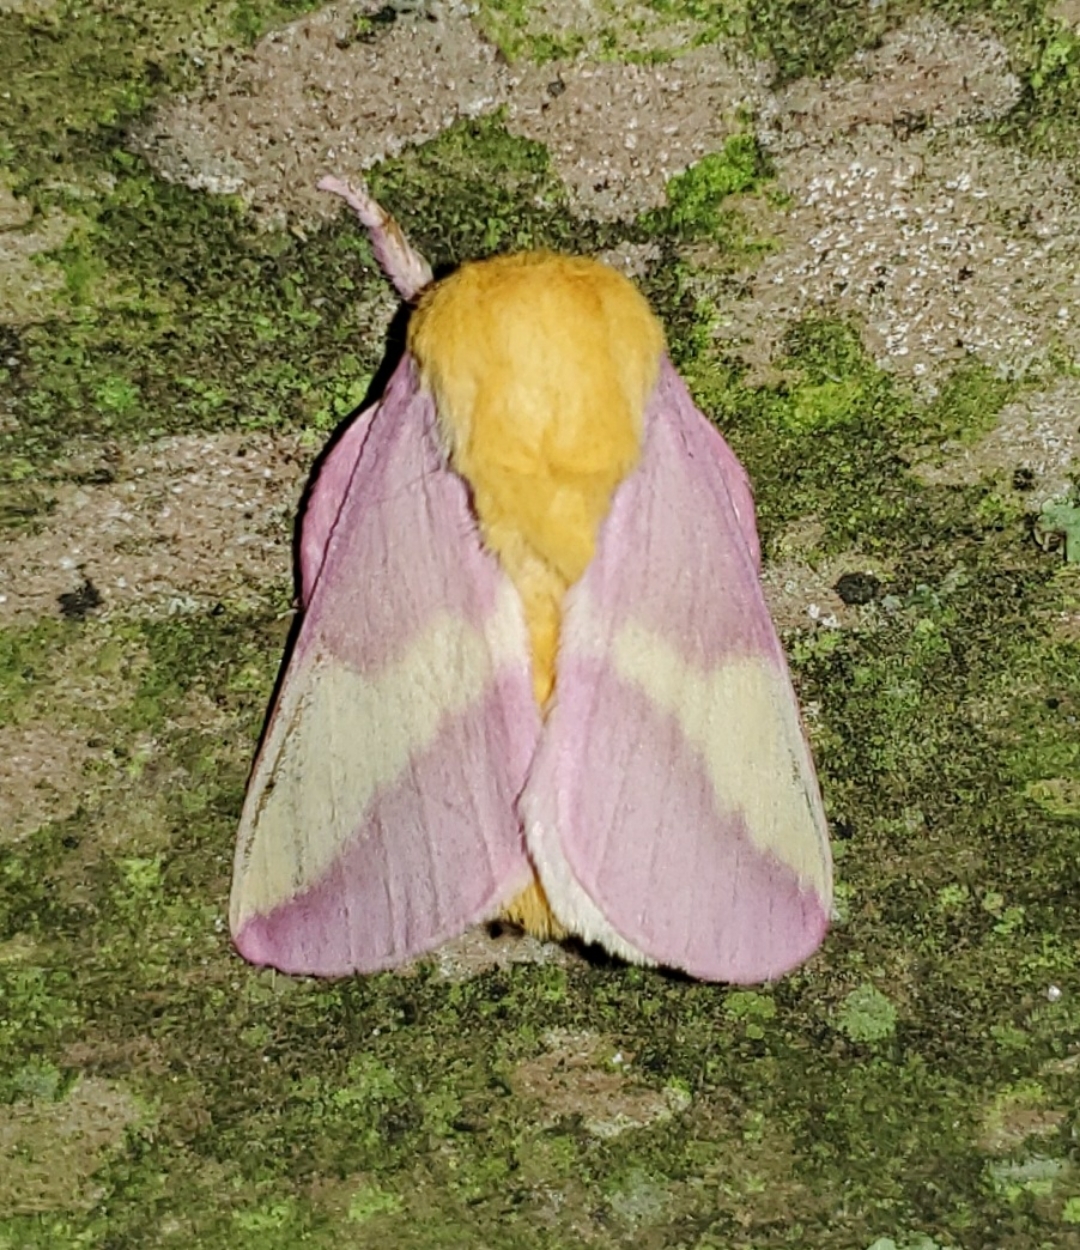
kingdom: Animalia
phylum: Arthropoda
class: Insecta
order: Lepidoptera
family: Saturniidae
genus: Dryocampa
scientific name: Dryocampa rubicunda
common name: Rosy maple moth
